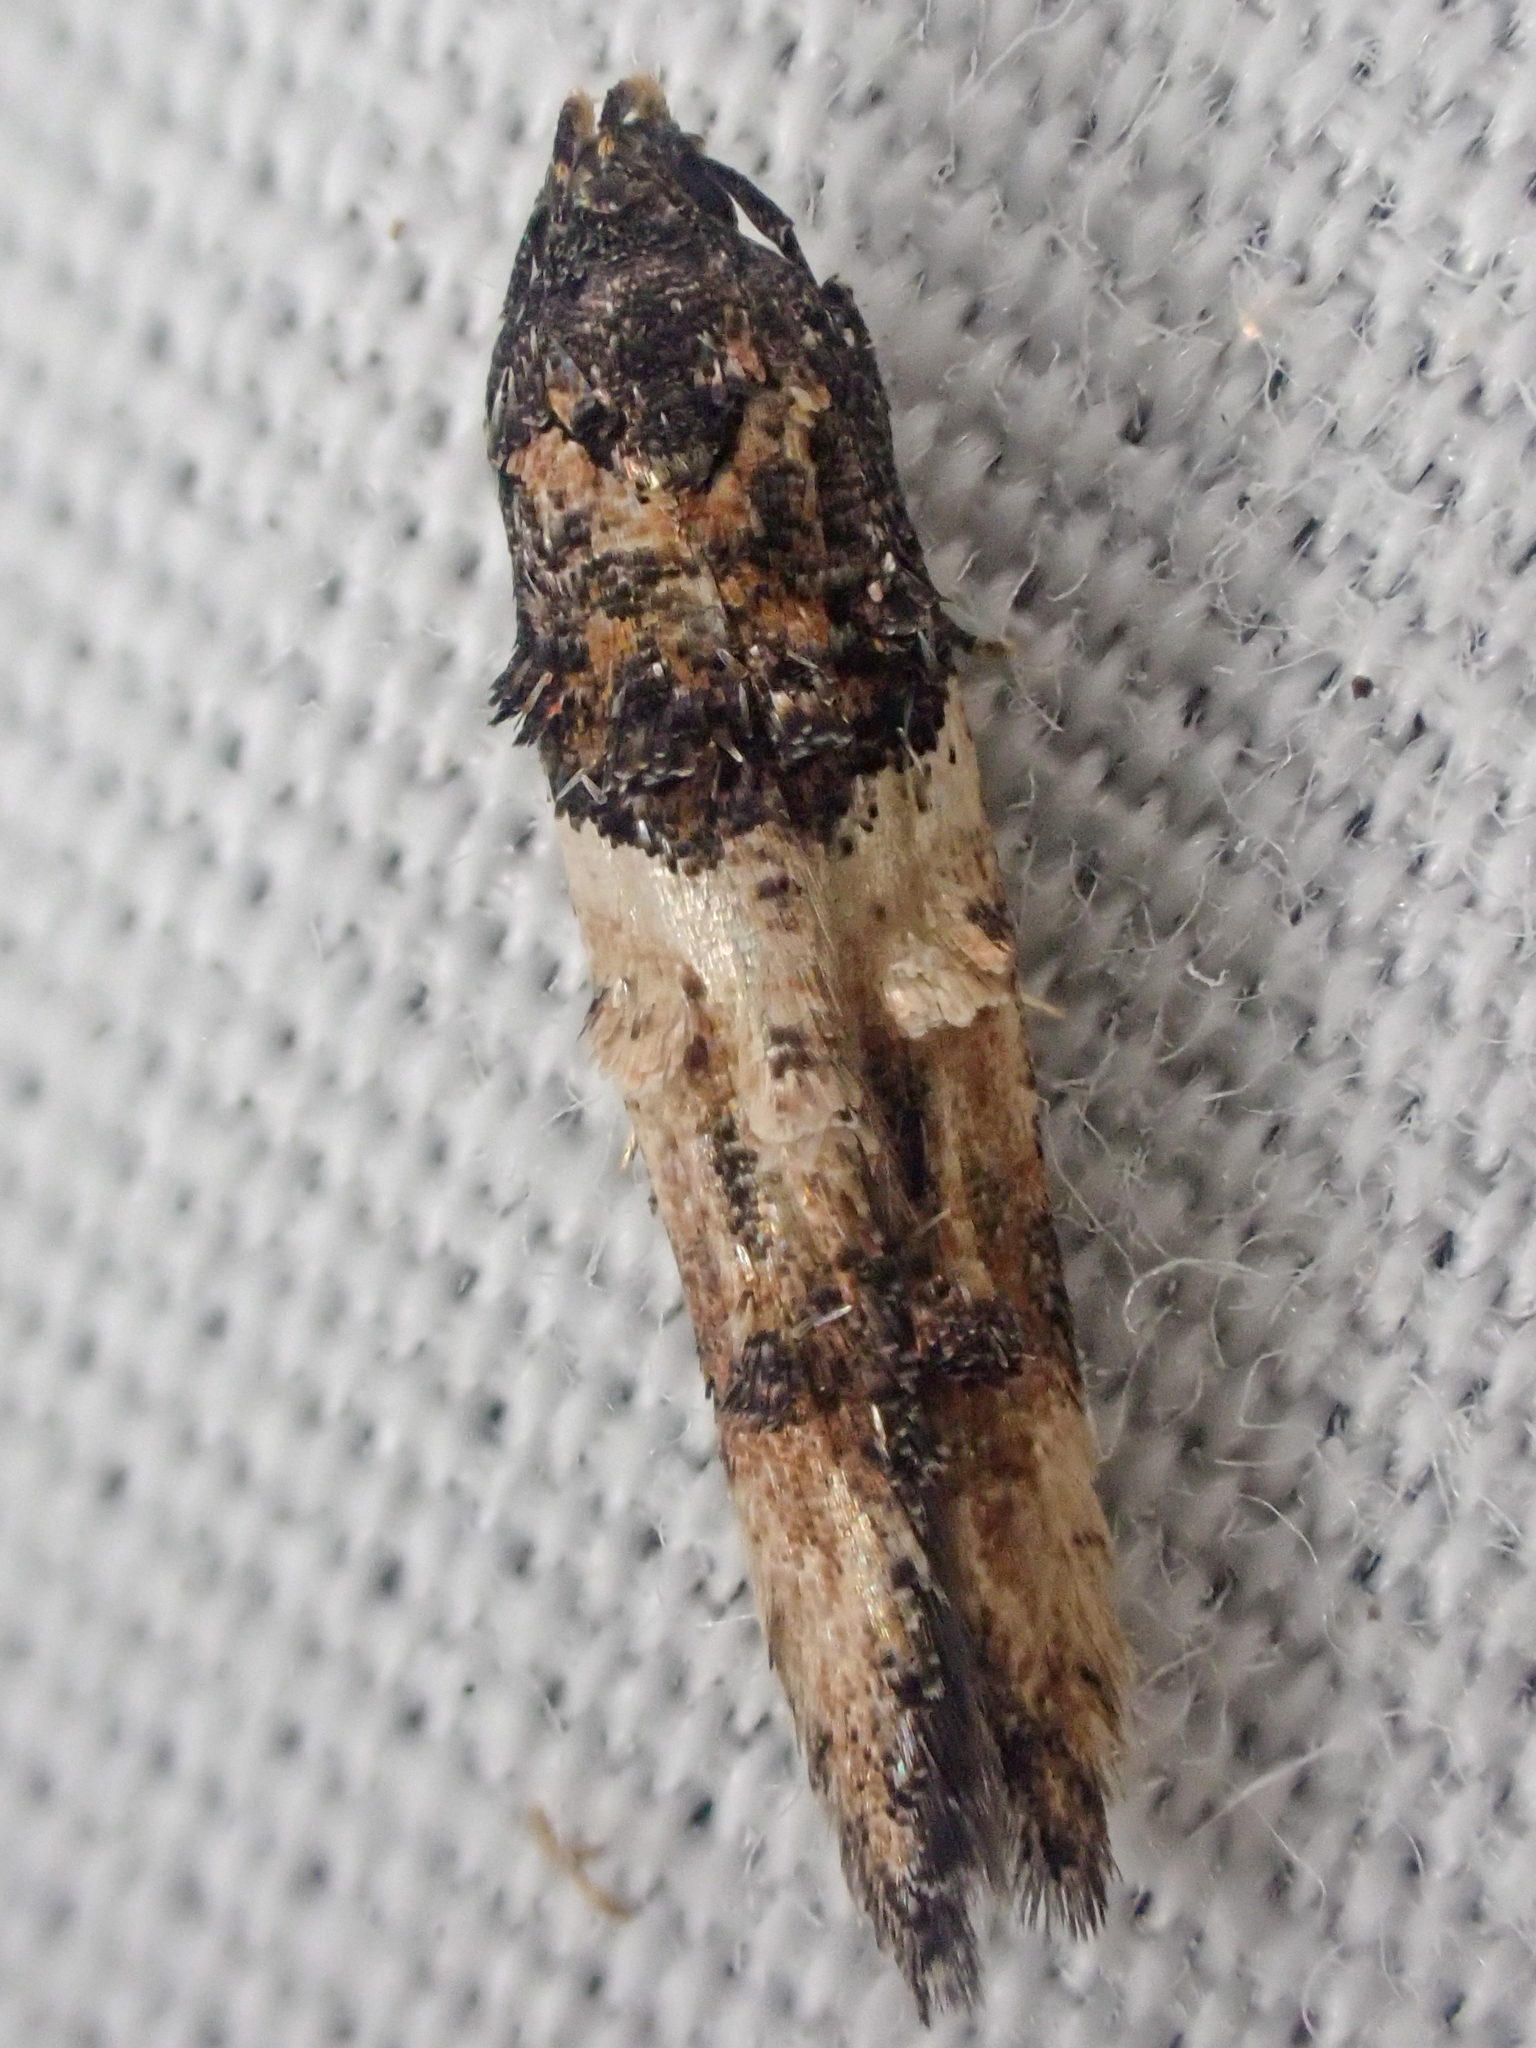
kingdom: Animalia
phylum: Arthropoda
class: Insecta
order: Lepidoptera
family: Cosmopterigidae
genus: Walshia
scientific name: Walshia miscecolorella
